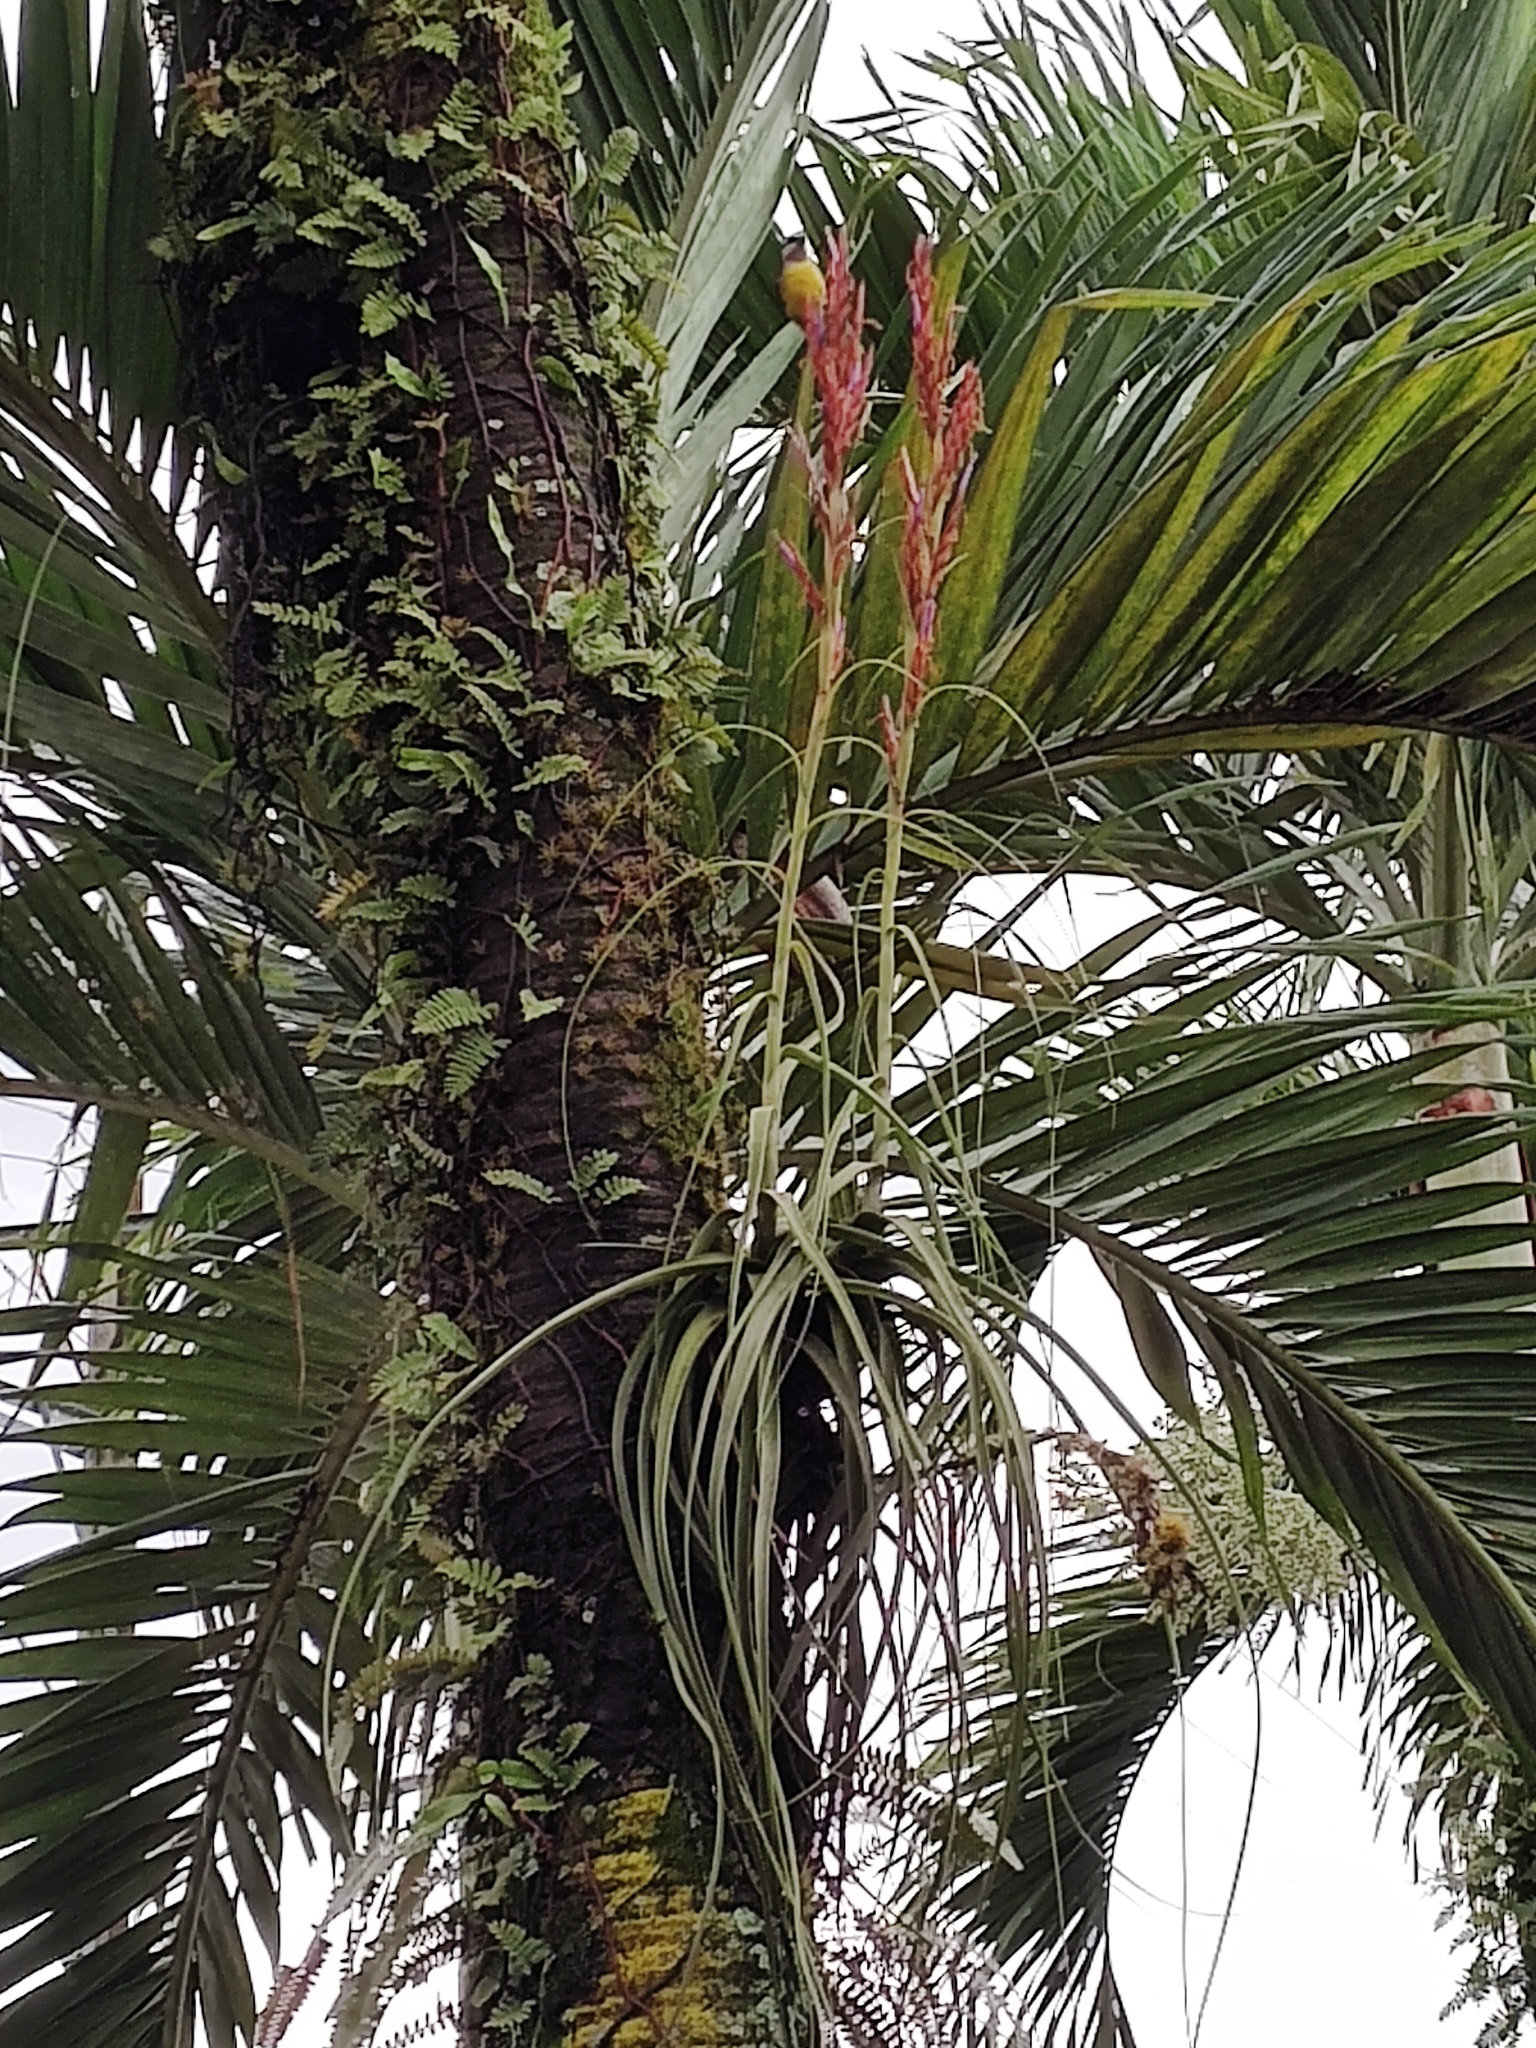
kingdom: Plantae
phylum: Tracheophyta
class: Liliopsida
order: Poales
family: Bromeliaceae
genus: Tillandsia
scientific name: Tillandsia balbisiana
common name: Northern needleleaf
